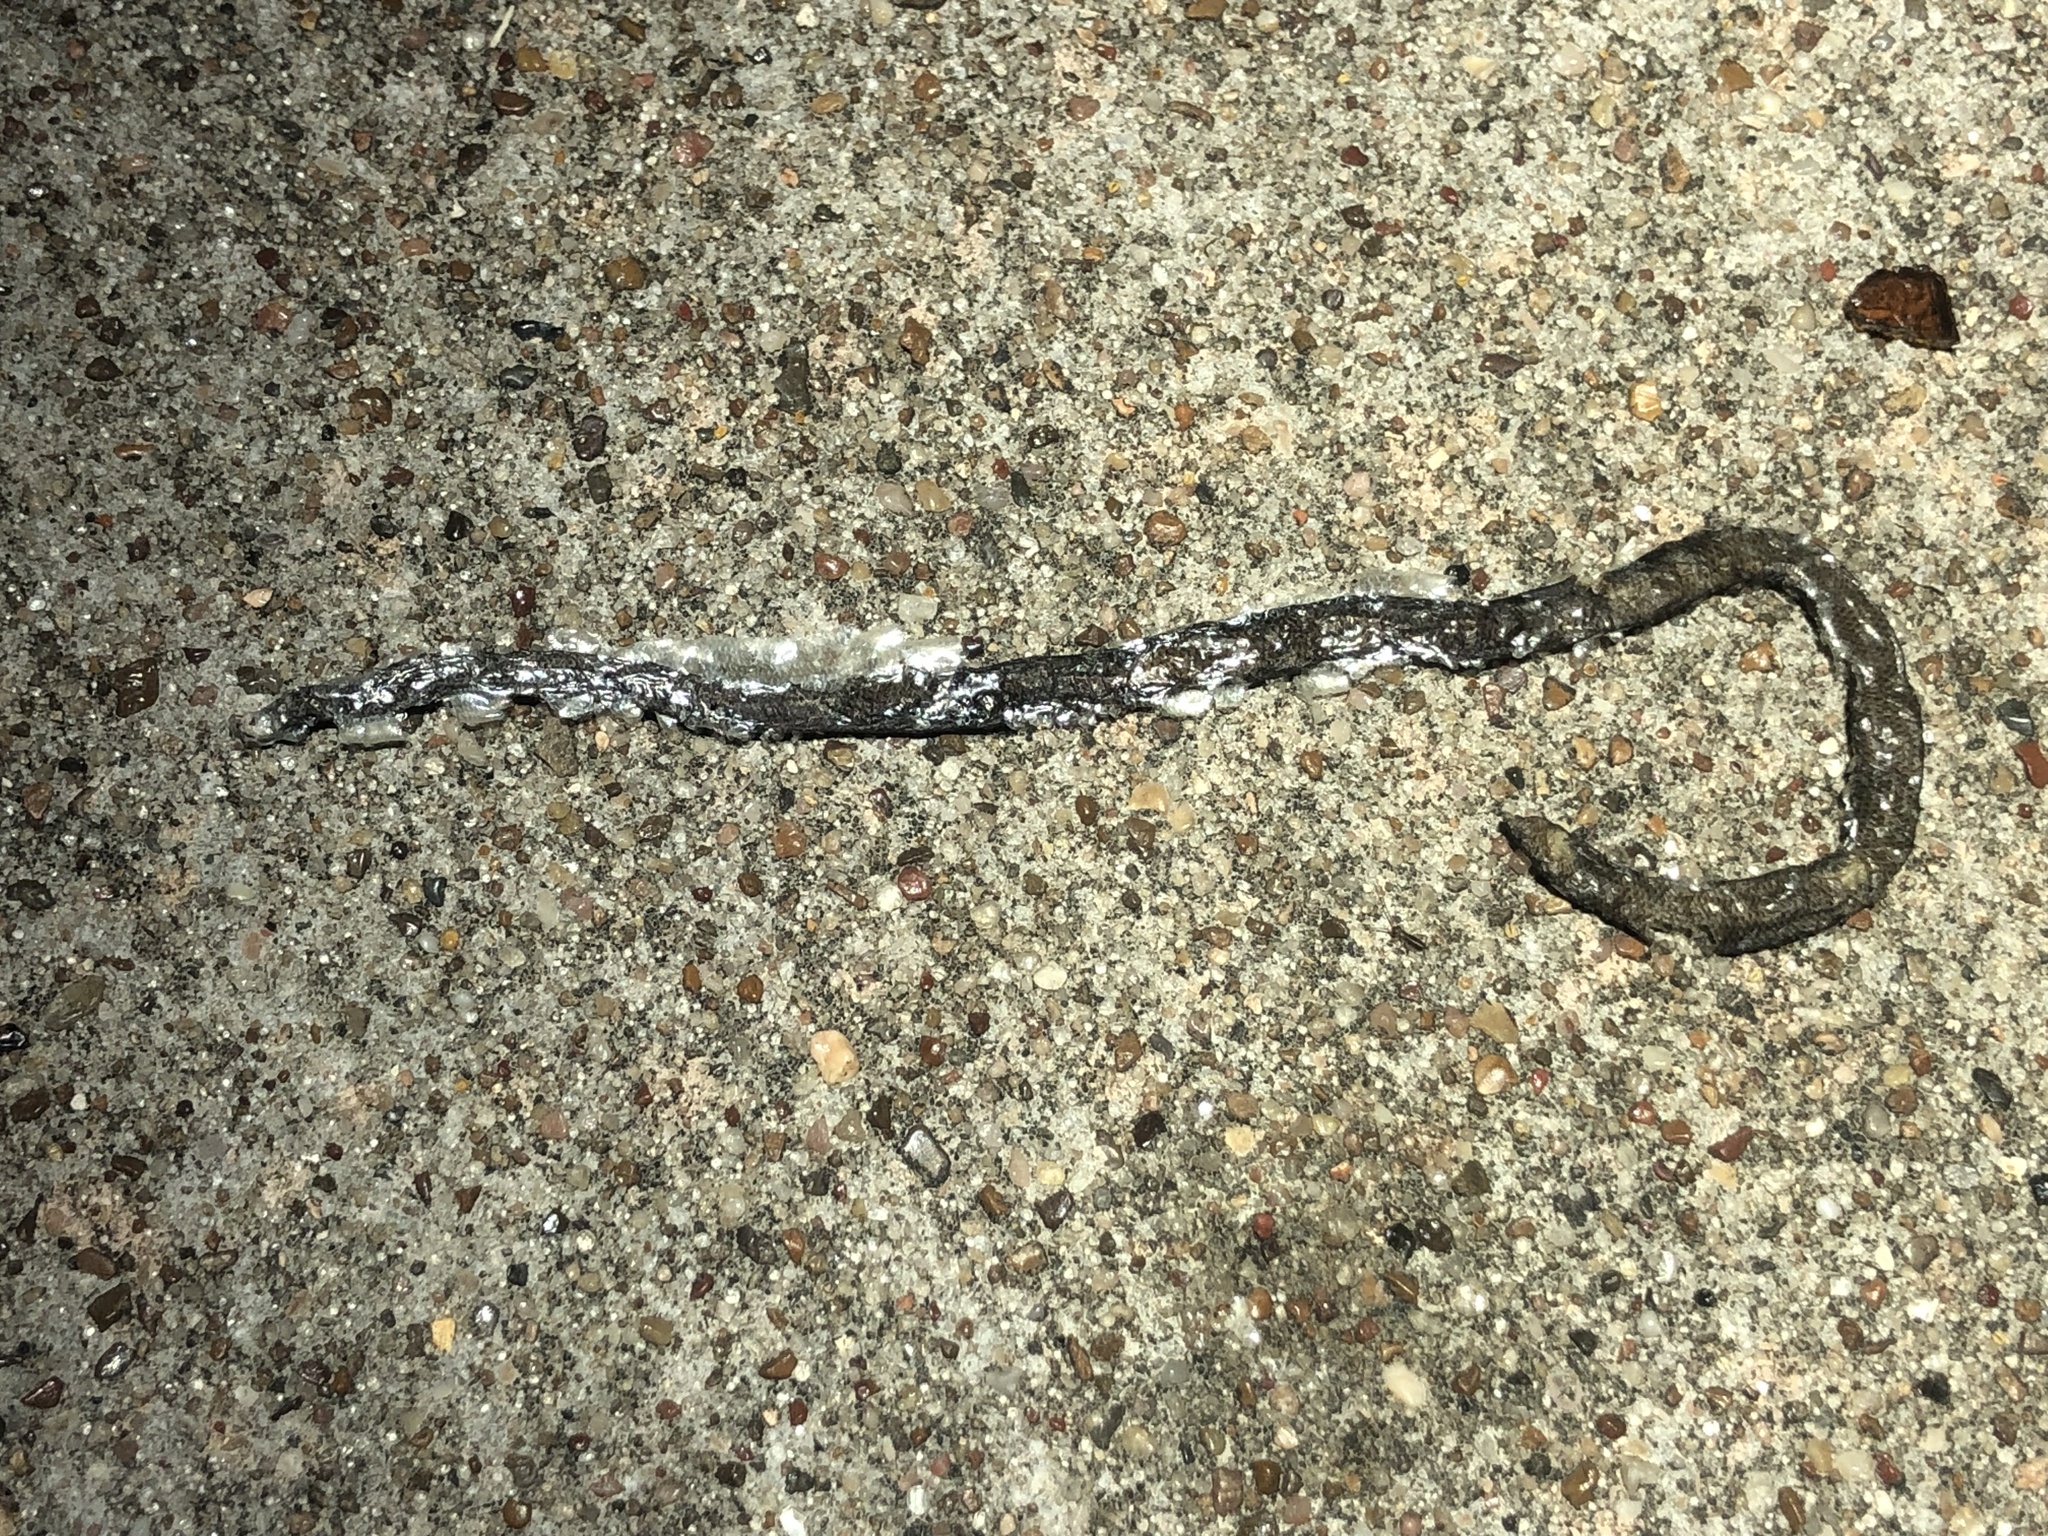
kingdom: Animalia
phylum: Chordata
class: Squamata
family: Typhlopidae
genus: Indotyphlops
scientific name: Indotyphlops braminus
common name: Brahminy blindsnake
